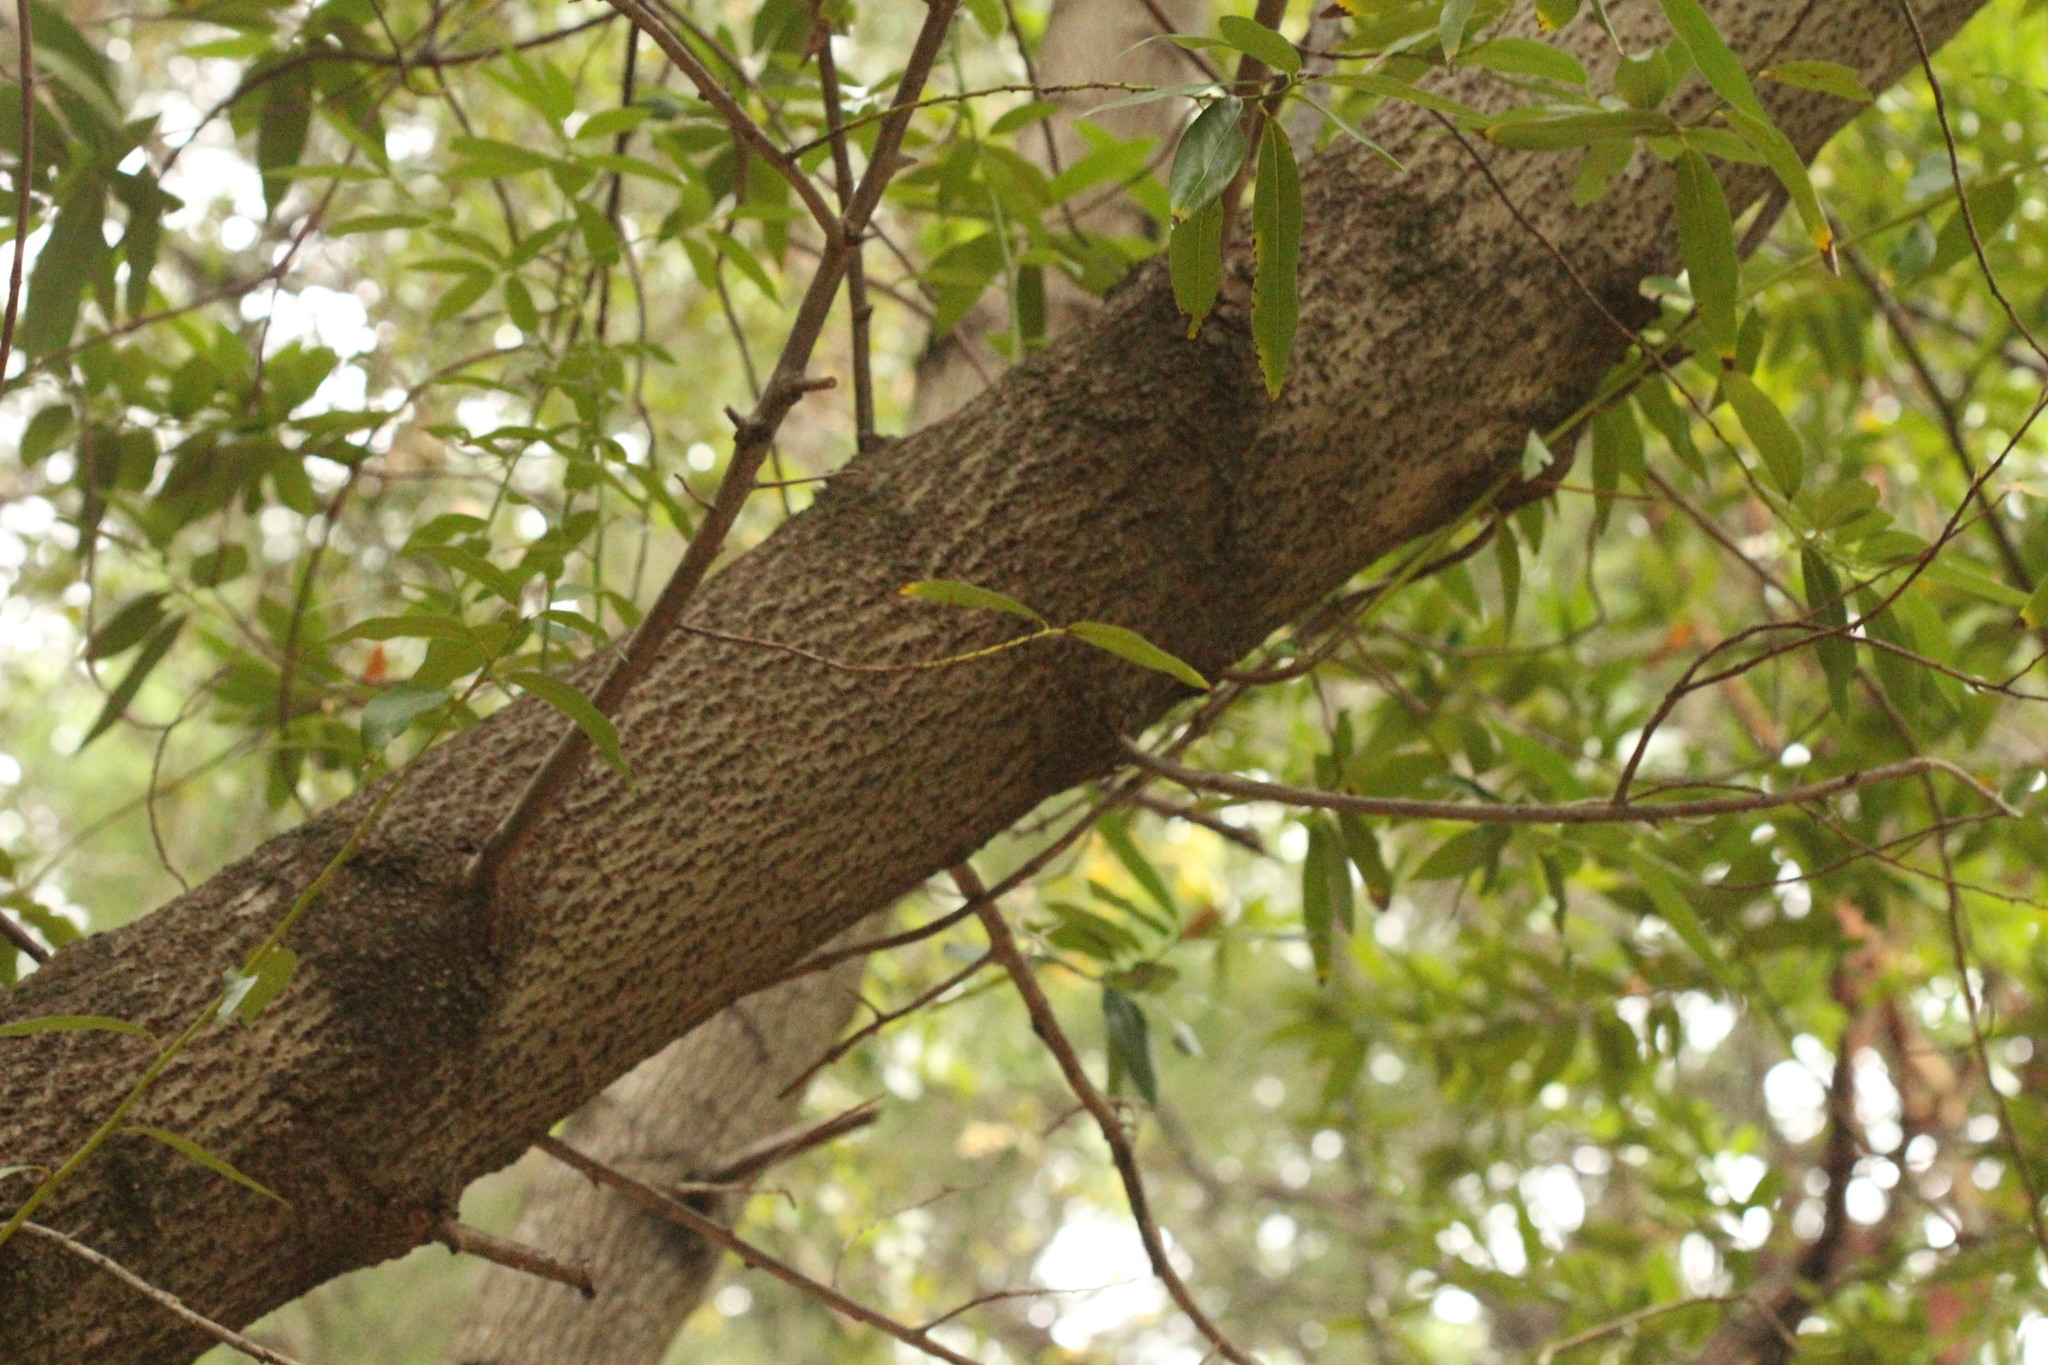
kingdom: Plantae
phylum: Tracheophyta
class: Magnoliopsida
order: Laurales
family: Lauraceae
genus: Umbellularia
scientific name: Umbellularia californica
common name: California bay
